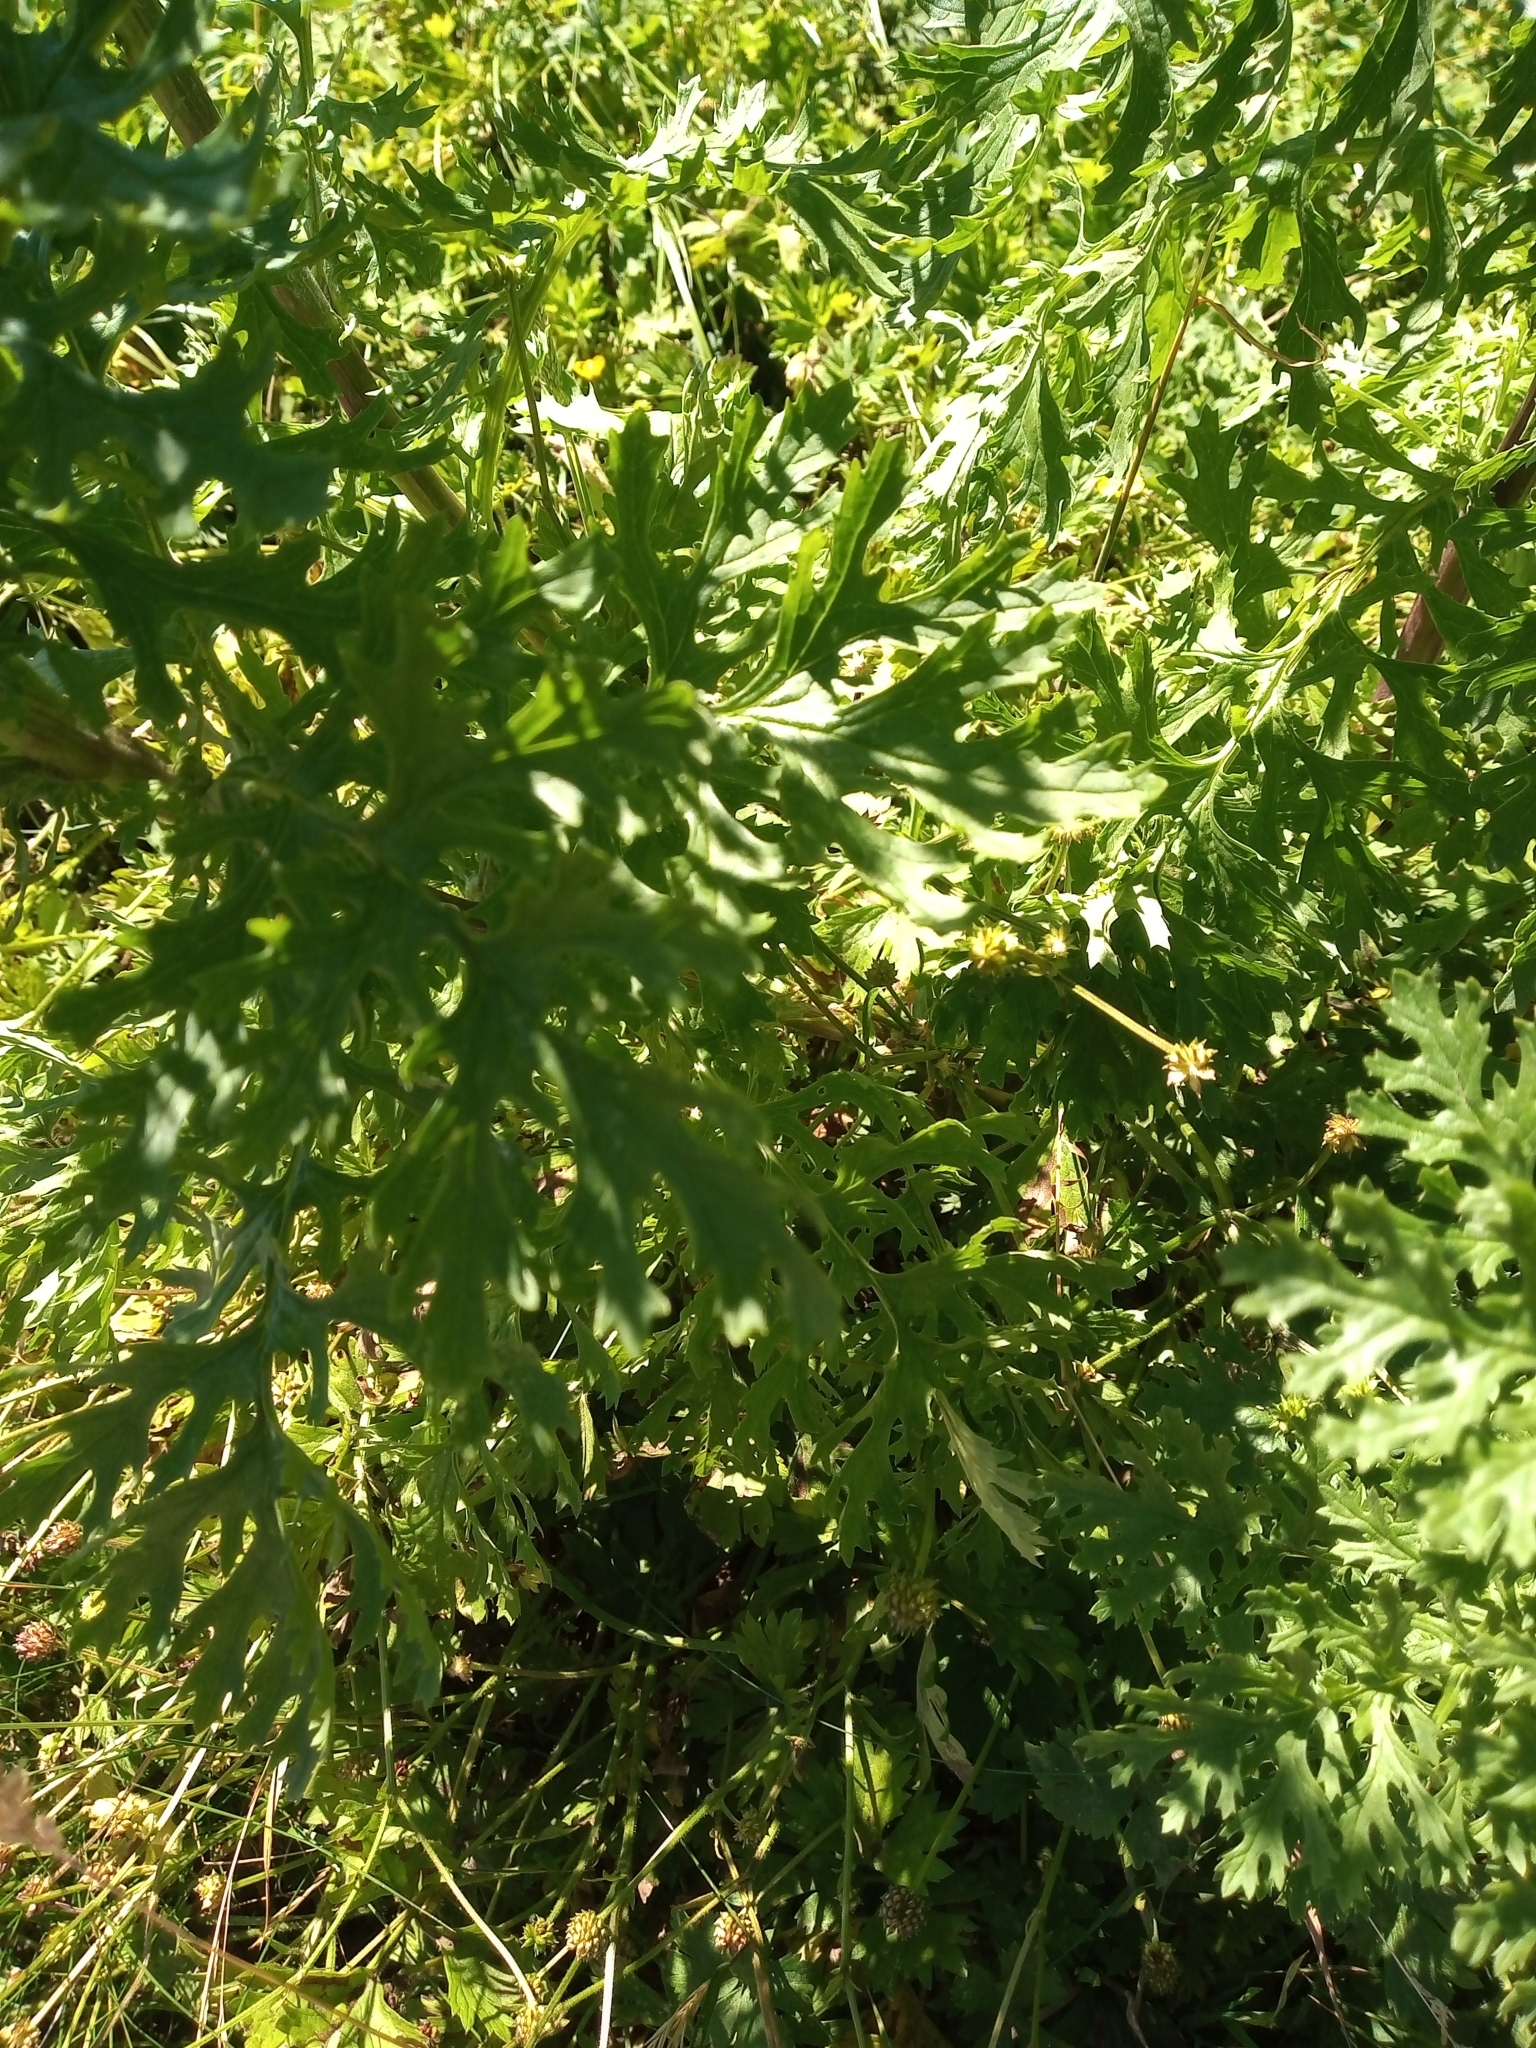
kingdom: Plantae
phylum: Tracheophyta
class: Magnoliopsida
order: Asterales
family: Asteraceae
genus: Jacobaea
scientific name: Jacobaea vulgaris
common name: Stinking willie
